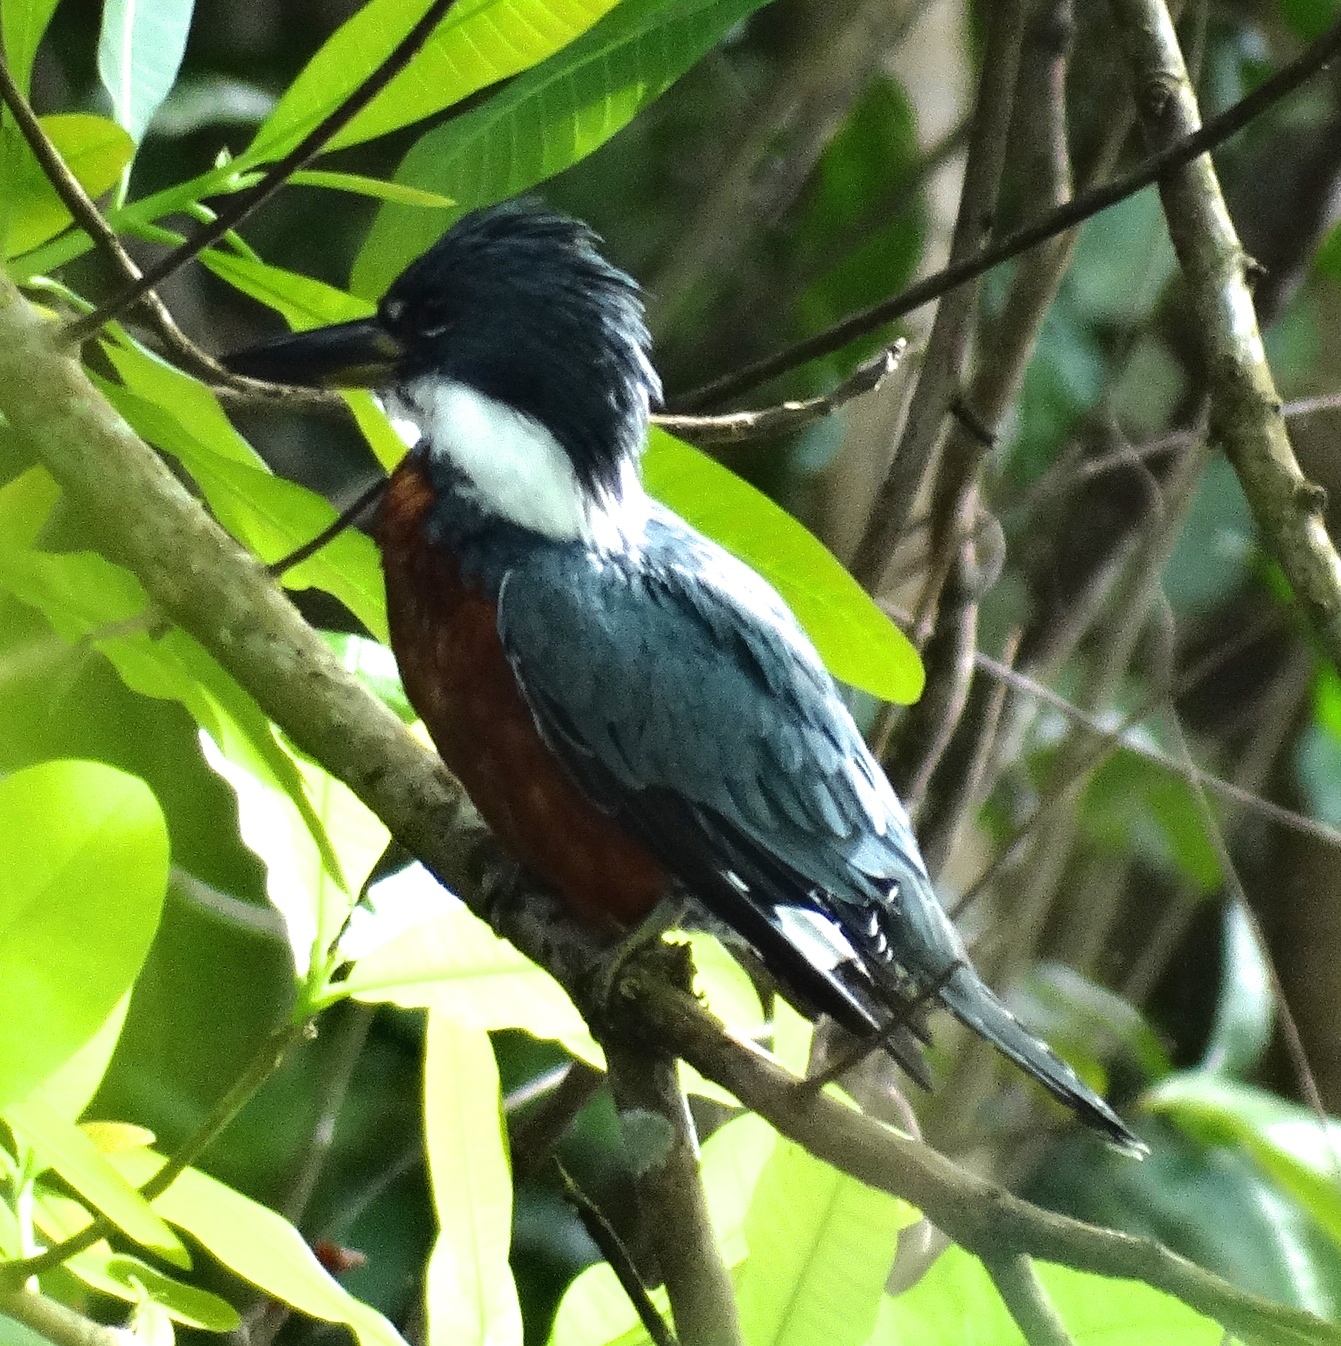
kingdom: Animalia
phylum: Chordata
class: Aves
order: Coraciiformes
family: Alcedinidae
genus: Megaceryle
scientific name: Megaceryle torquata
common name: Ringed kingfisher
